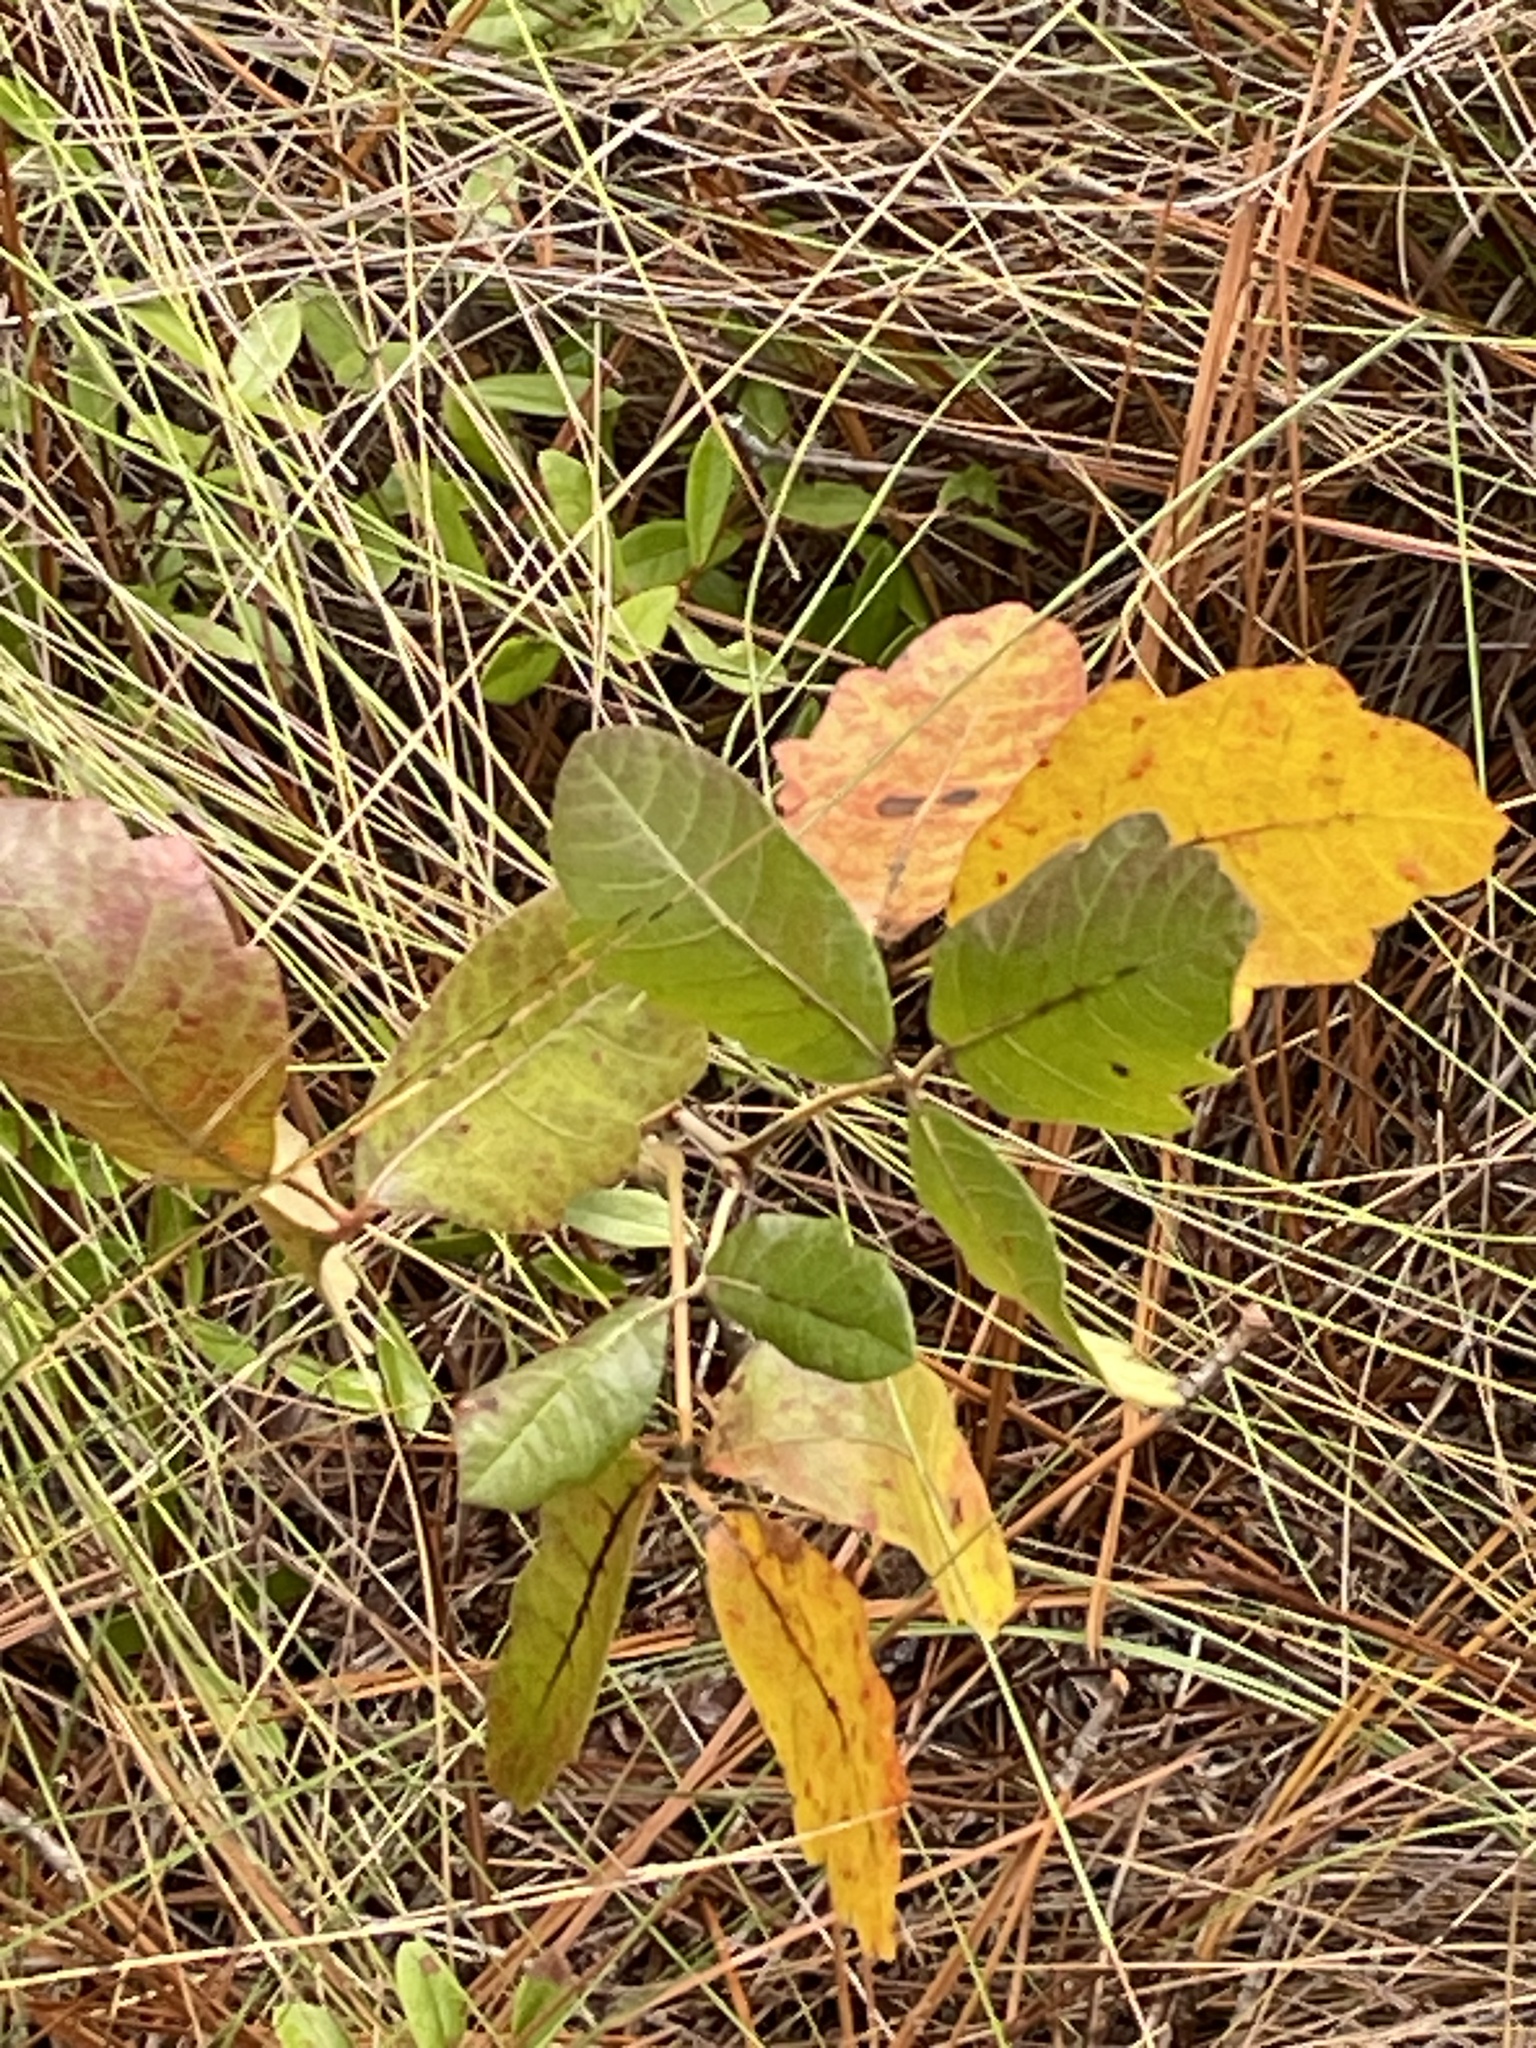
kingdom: Plantae
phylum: Tracheophyta
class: Magnoliopsida
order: Sapindales
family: Anacardiaceae
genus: Toxicodendron
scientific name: Toxicodendron pubescens
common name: Eastern poison-oak
